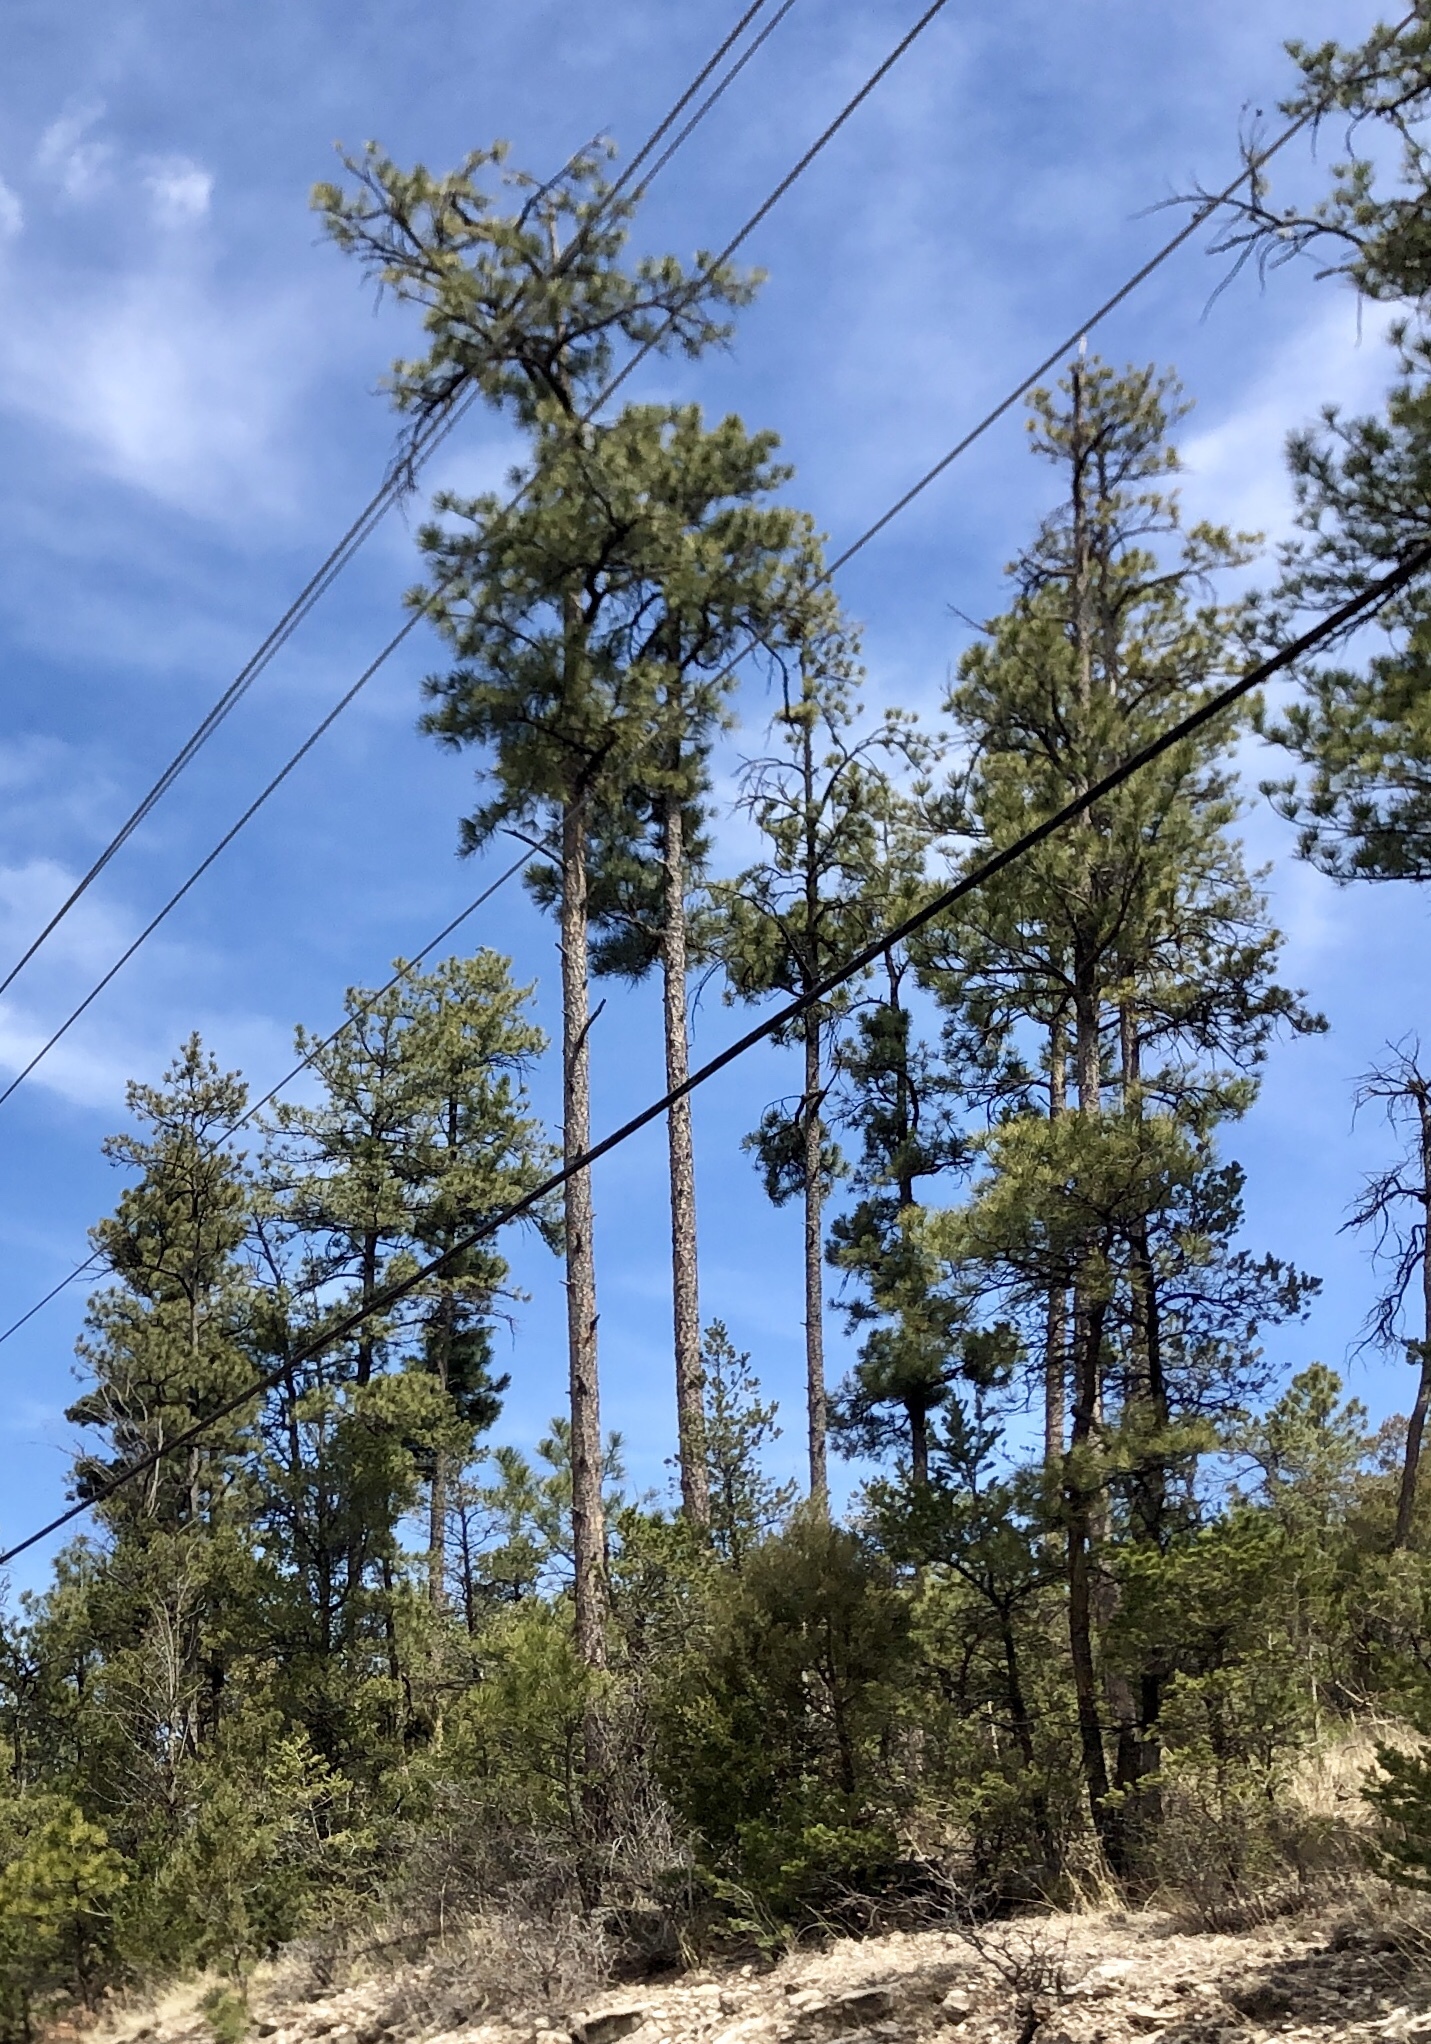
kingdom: Plantae
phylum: Tracheophyta
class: Pinopsida
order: Pinales
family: Pinaceae
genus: Pinus
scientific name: Pinus ponderosa
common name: Western yellow-pine
